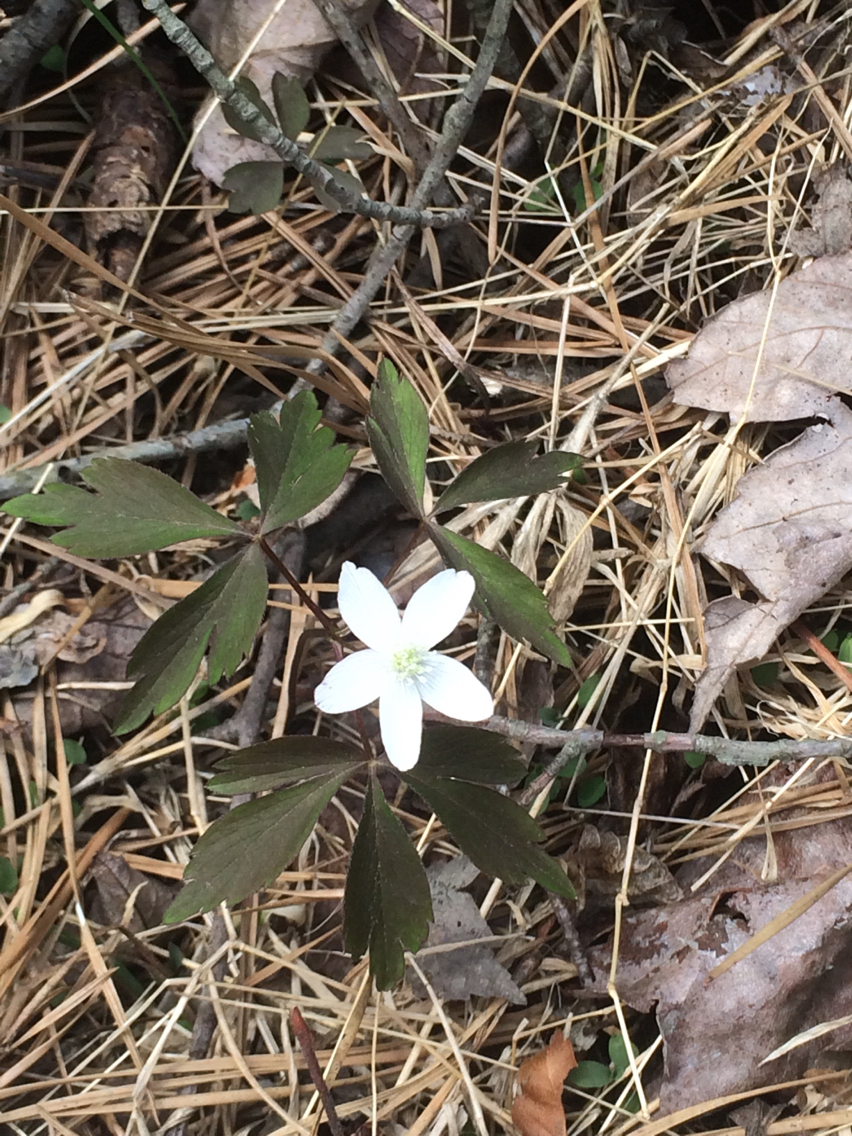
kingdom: Plantae
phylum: Tracheophyta
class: Magnoliopsida
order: Ranunculales
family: Ranunculaceae
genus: Anemone
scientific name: Anemone quinquefolia
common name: Wood anemone
